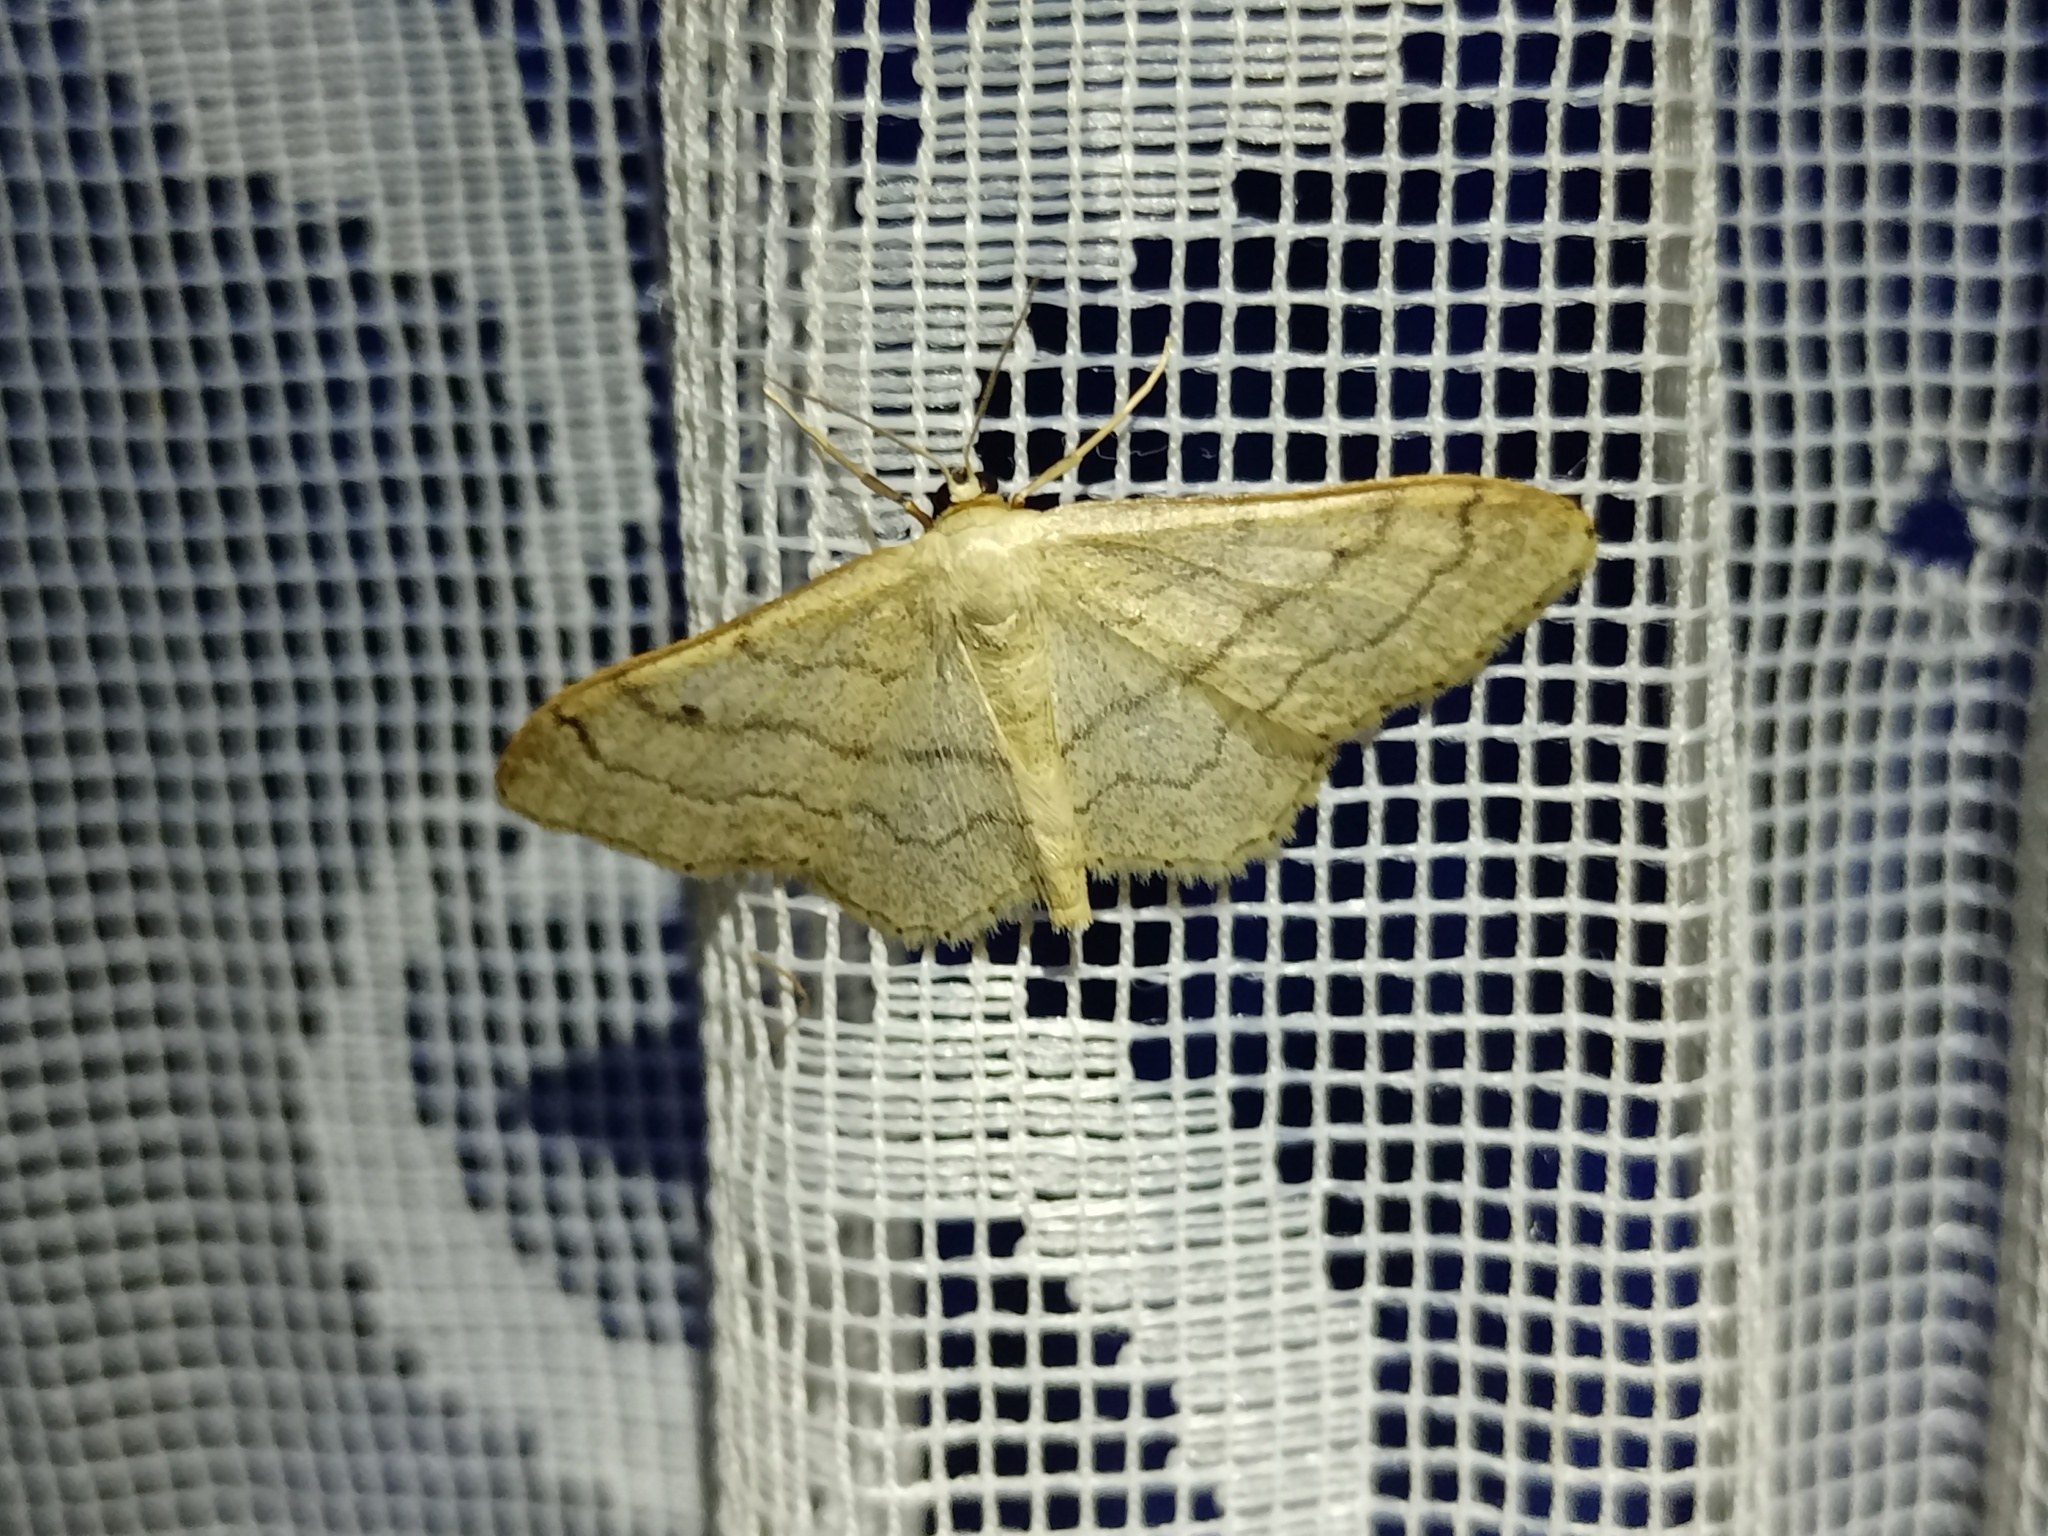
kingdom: Animalia
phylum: Arthropoda
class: Insecta
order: Lepidoptera
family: Geometridae
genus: Idaea
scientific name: Idaea aversata
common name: Riband wave
